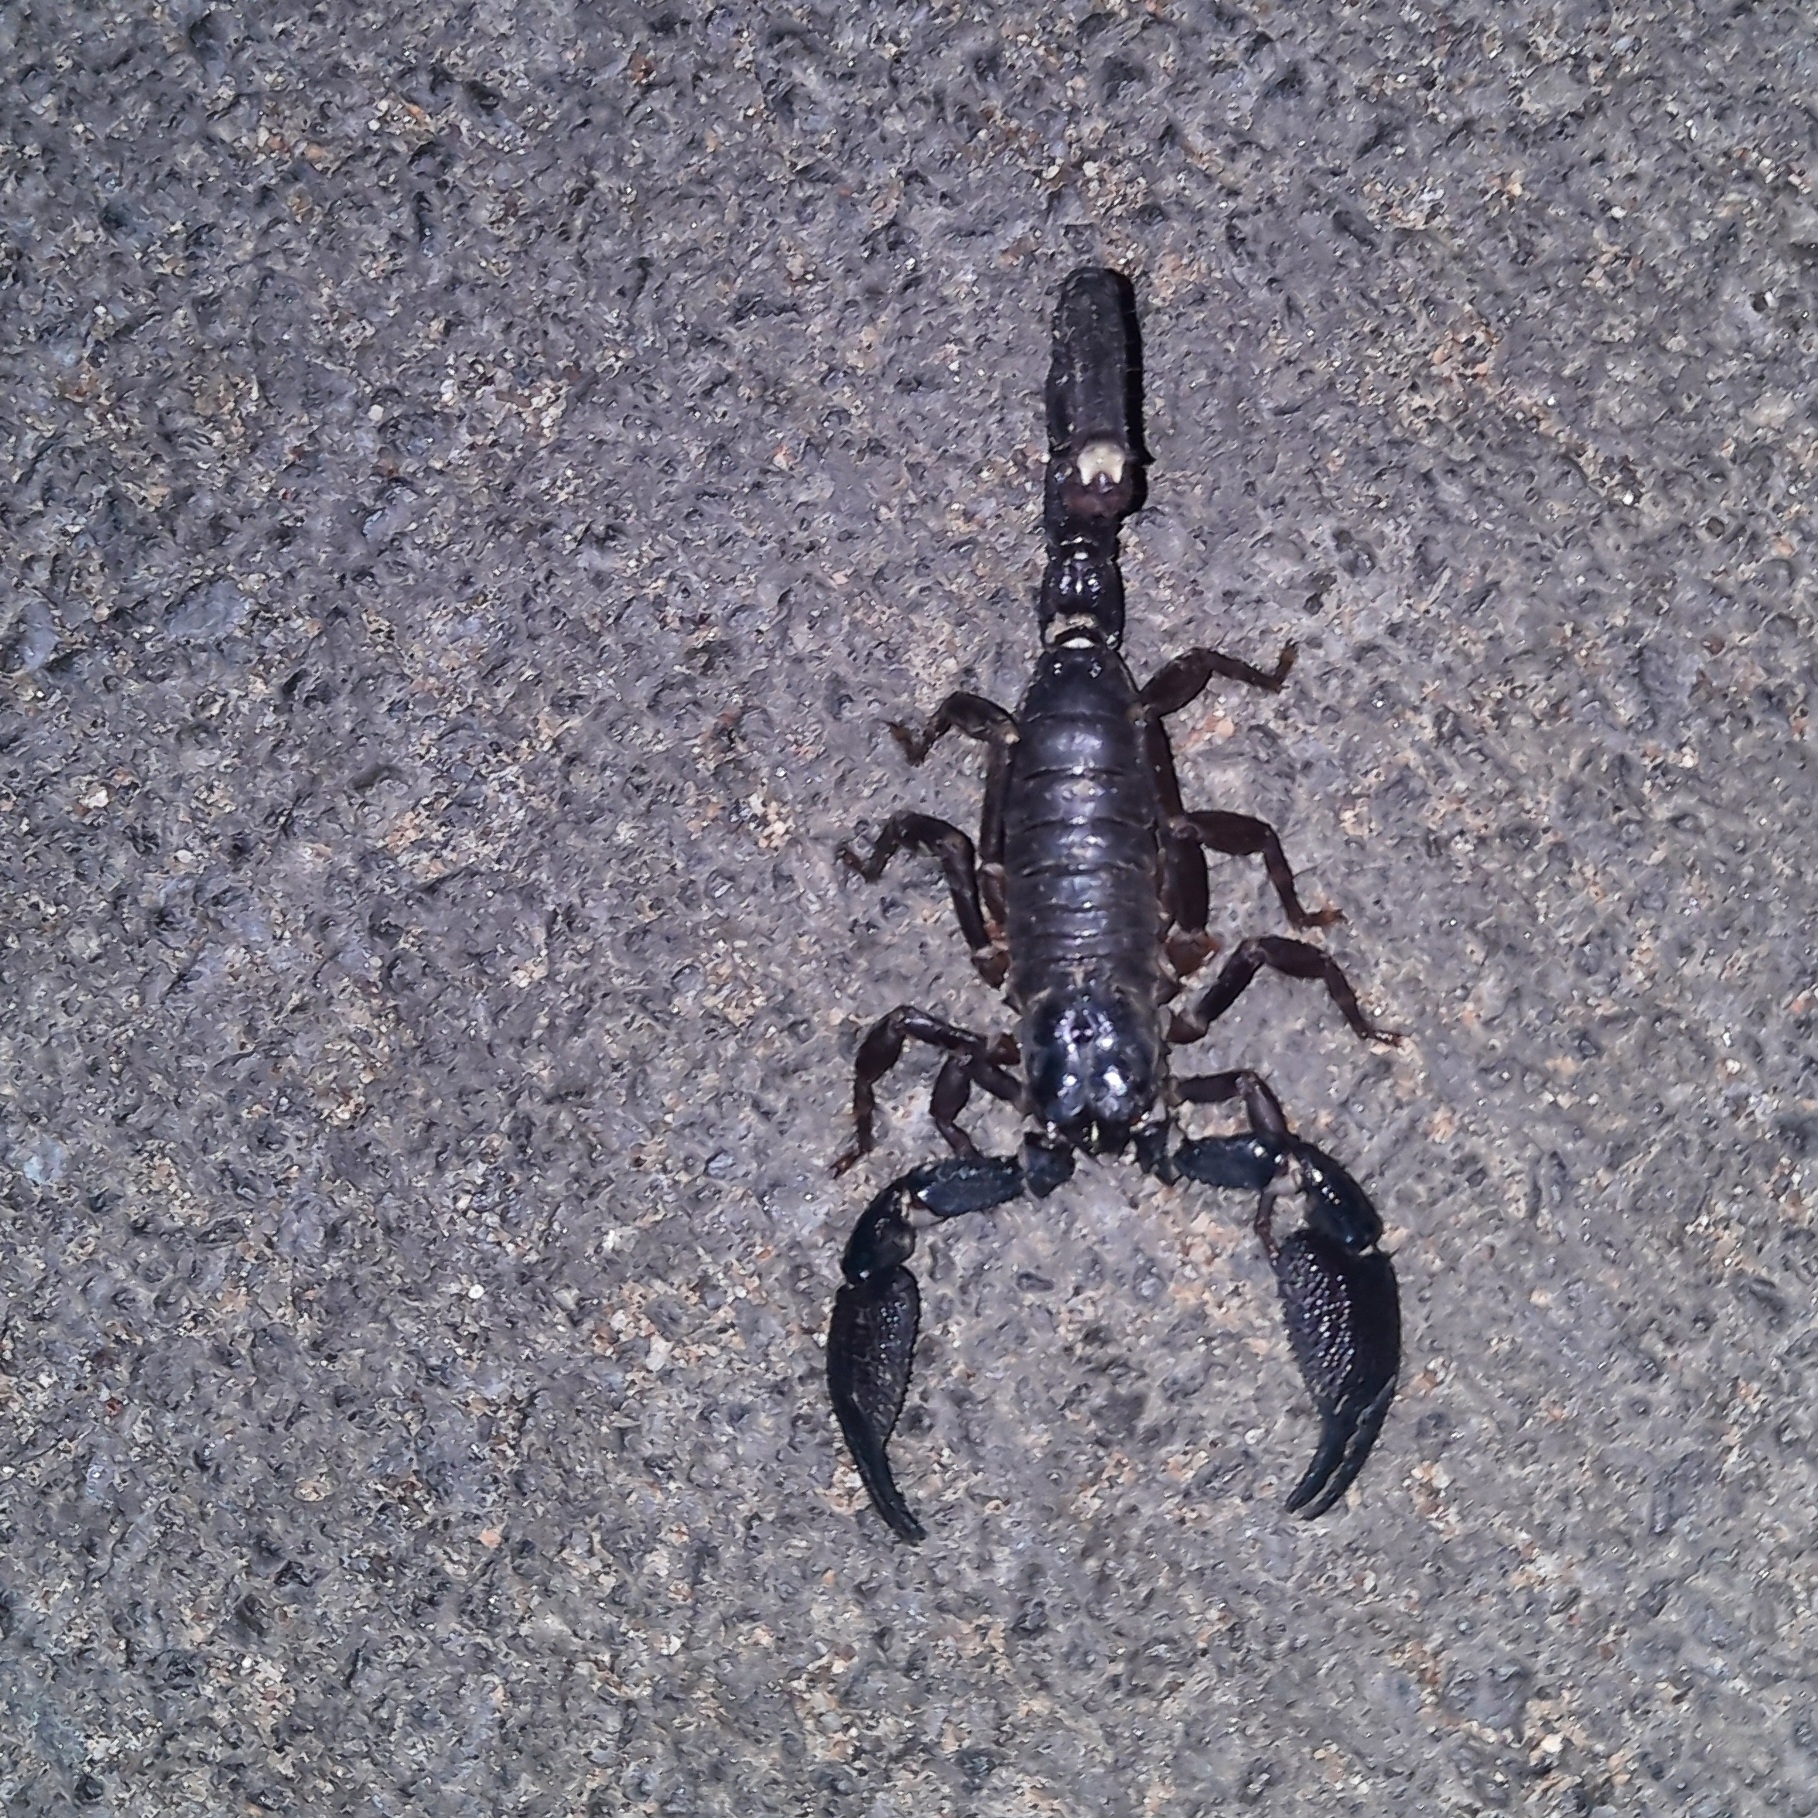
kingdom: Animalia
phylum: Arthropoda
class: Arachnida
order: Scorpiones
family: Scorpionidae
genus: Gigantometrus
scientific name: Gigantometrus swammerdami
